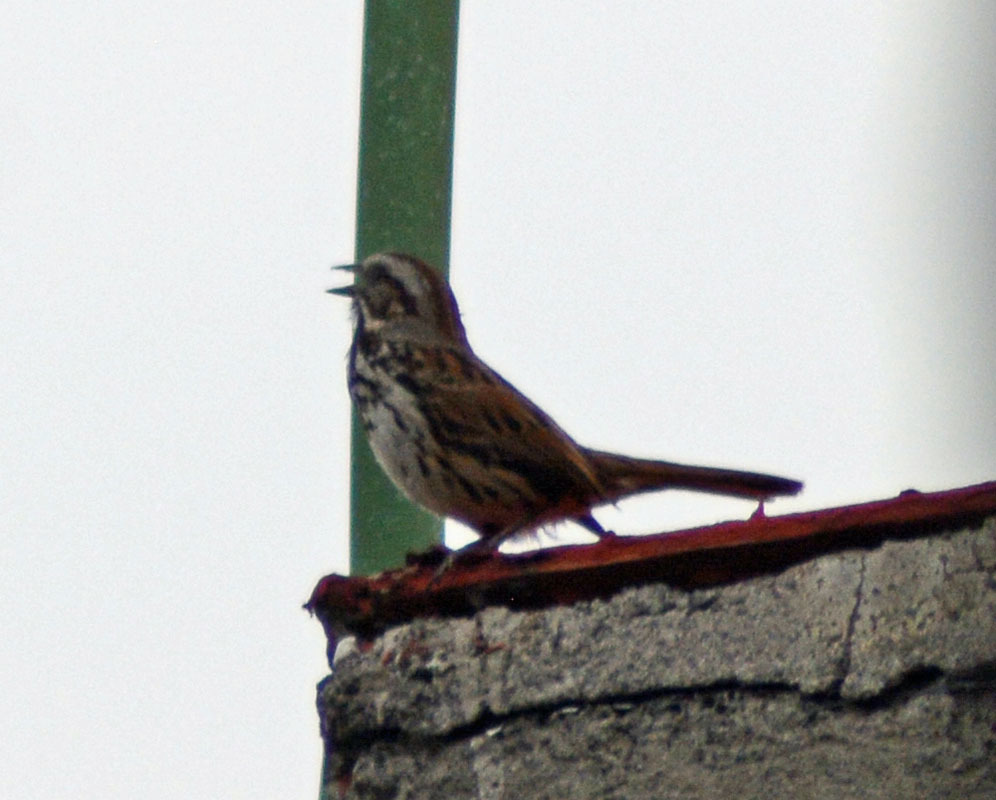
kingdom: Animalia
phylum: Chordata
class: Aves
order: Passeriformes
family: Passerellidae
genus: Melospiza
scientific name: Melospiza melodia
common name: Song sparrow
